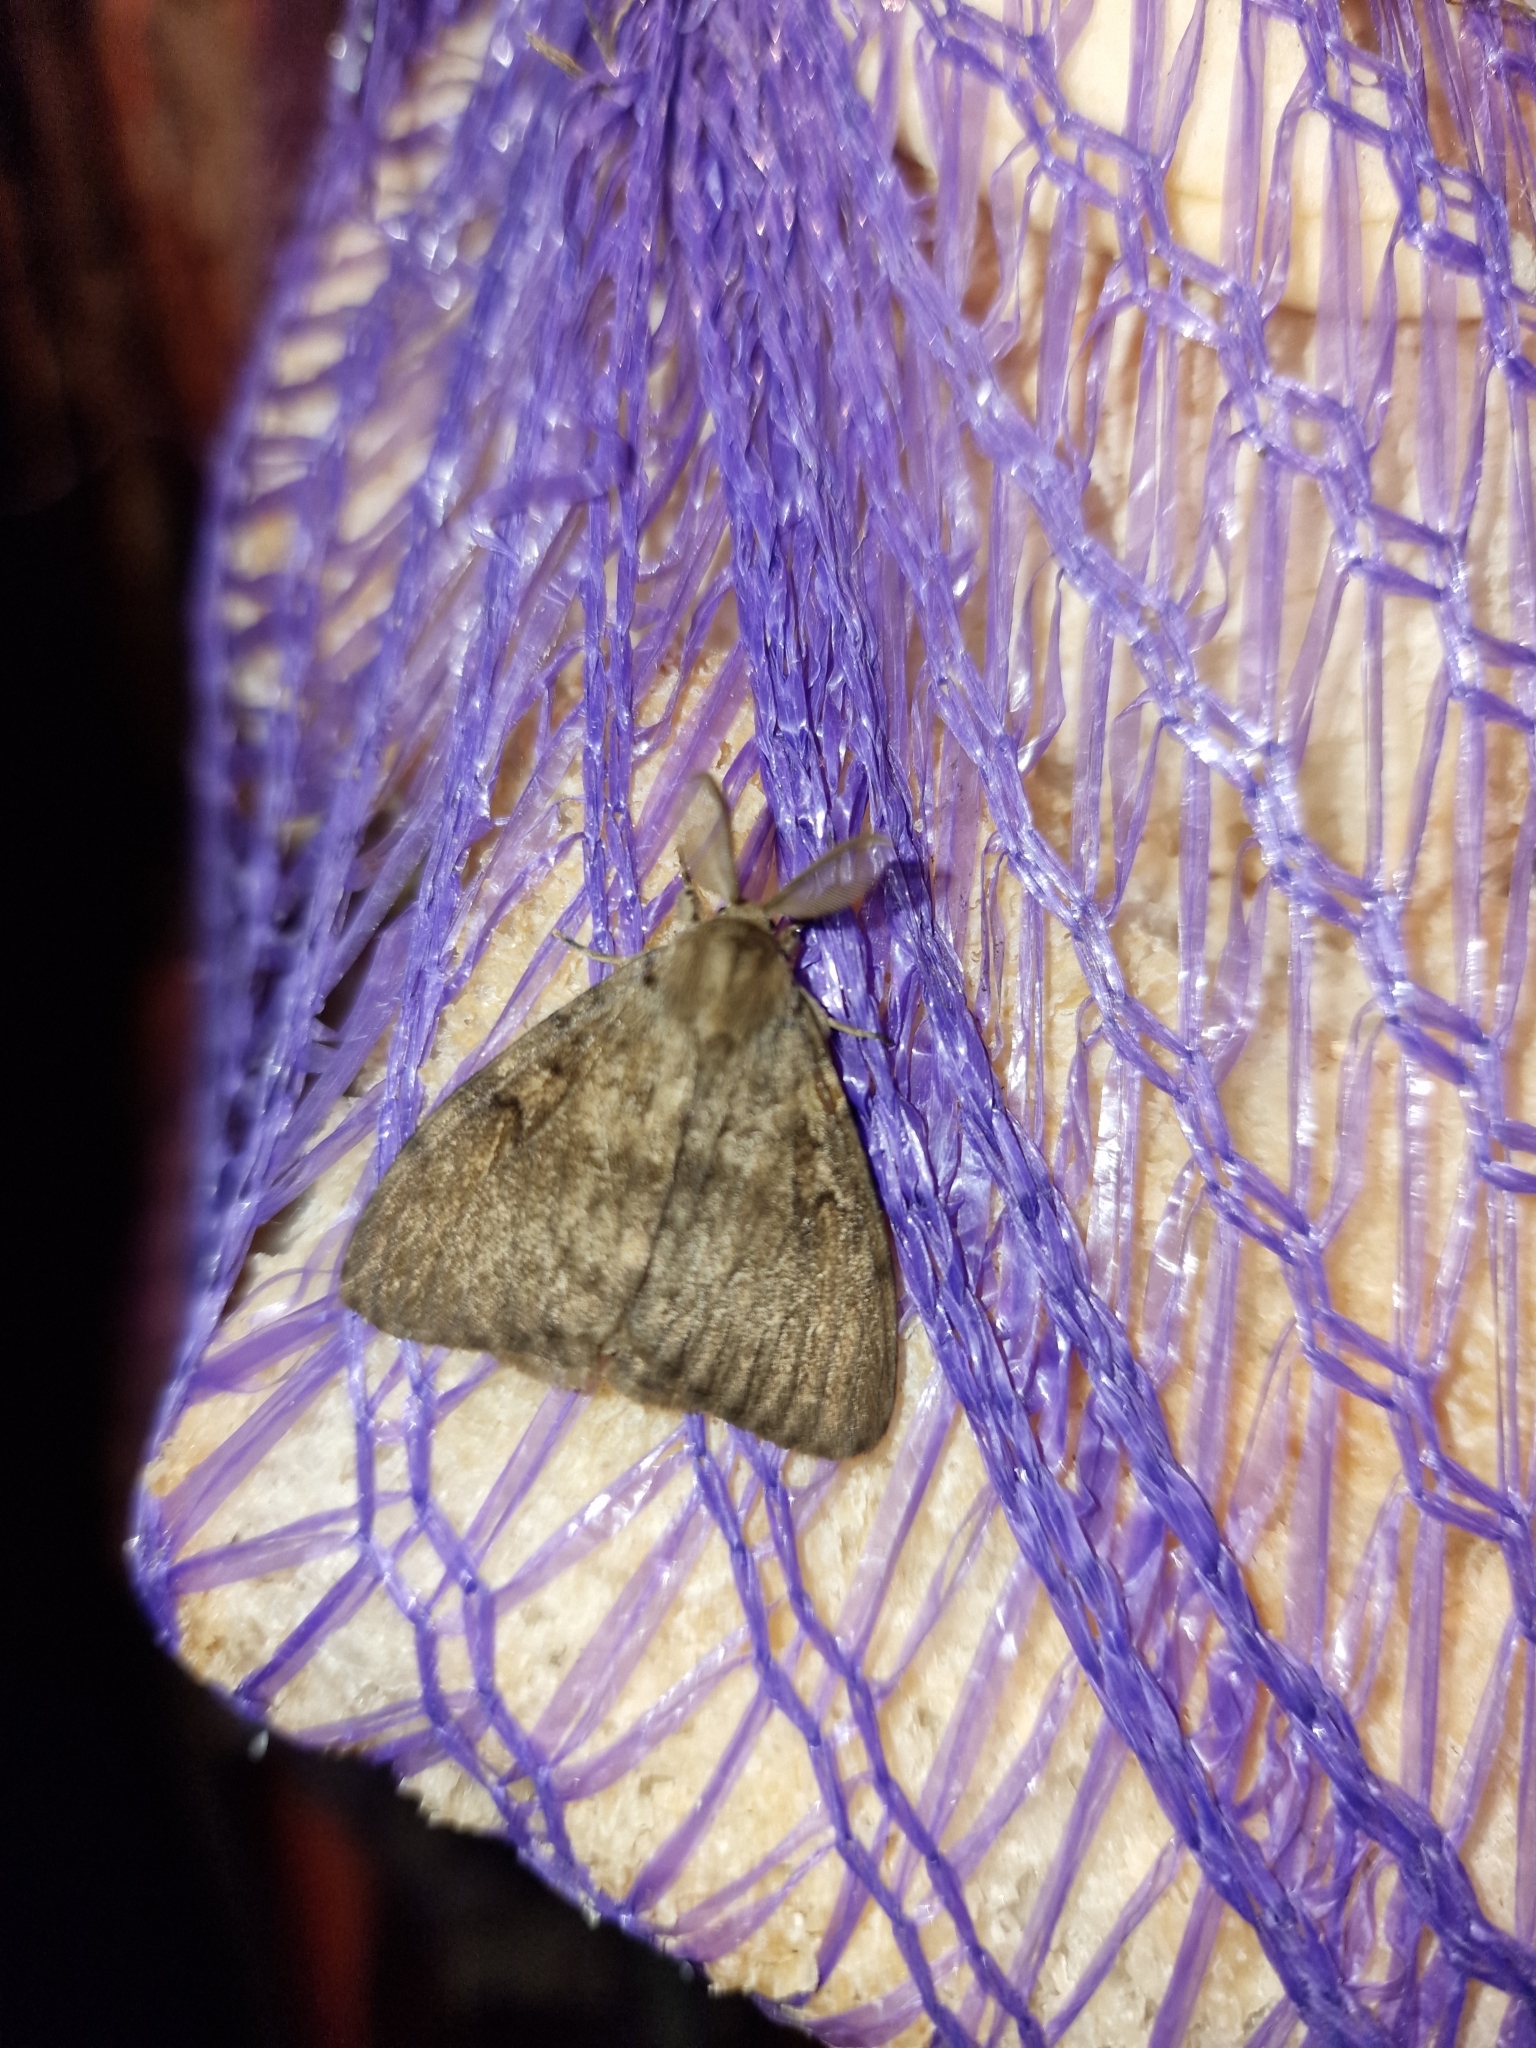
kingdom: Animalia
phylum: Arthropoda
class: Insecta
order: Lepidoptera
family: Erebidae
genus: Lymantria
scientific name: Lymantria dispar
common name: Gypsy moth
